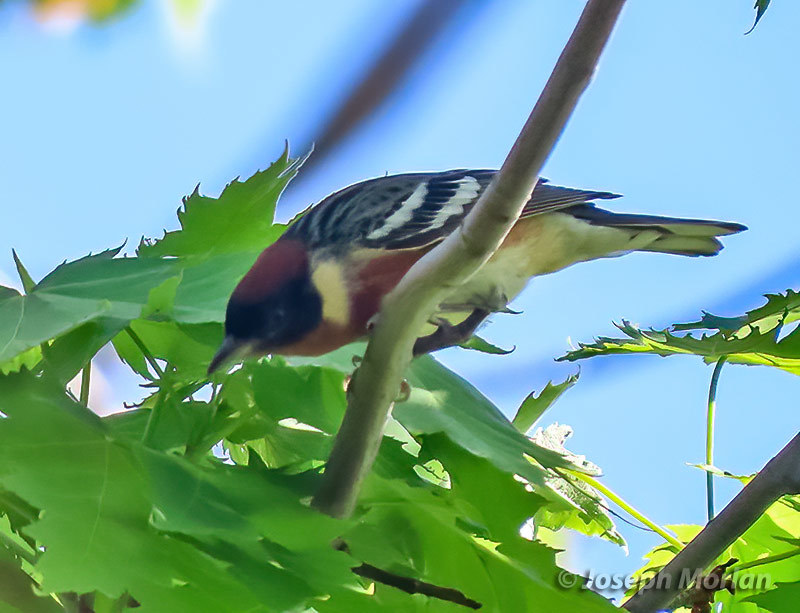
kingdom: Animalia
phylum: Chordata
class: Aves
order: Passeriformes
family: Parulidae
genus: Setophaga
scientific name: Setophaga castanea
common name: Bay-breasted warbler
